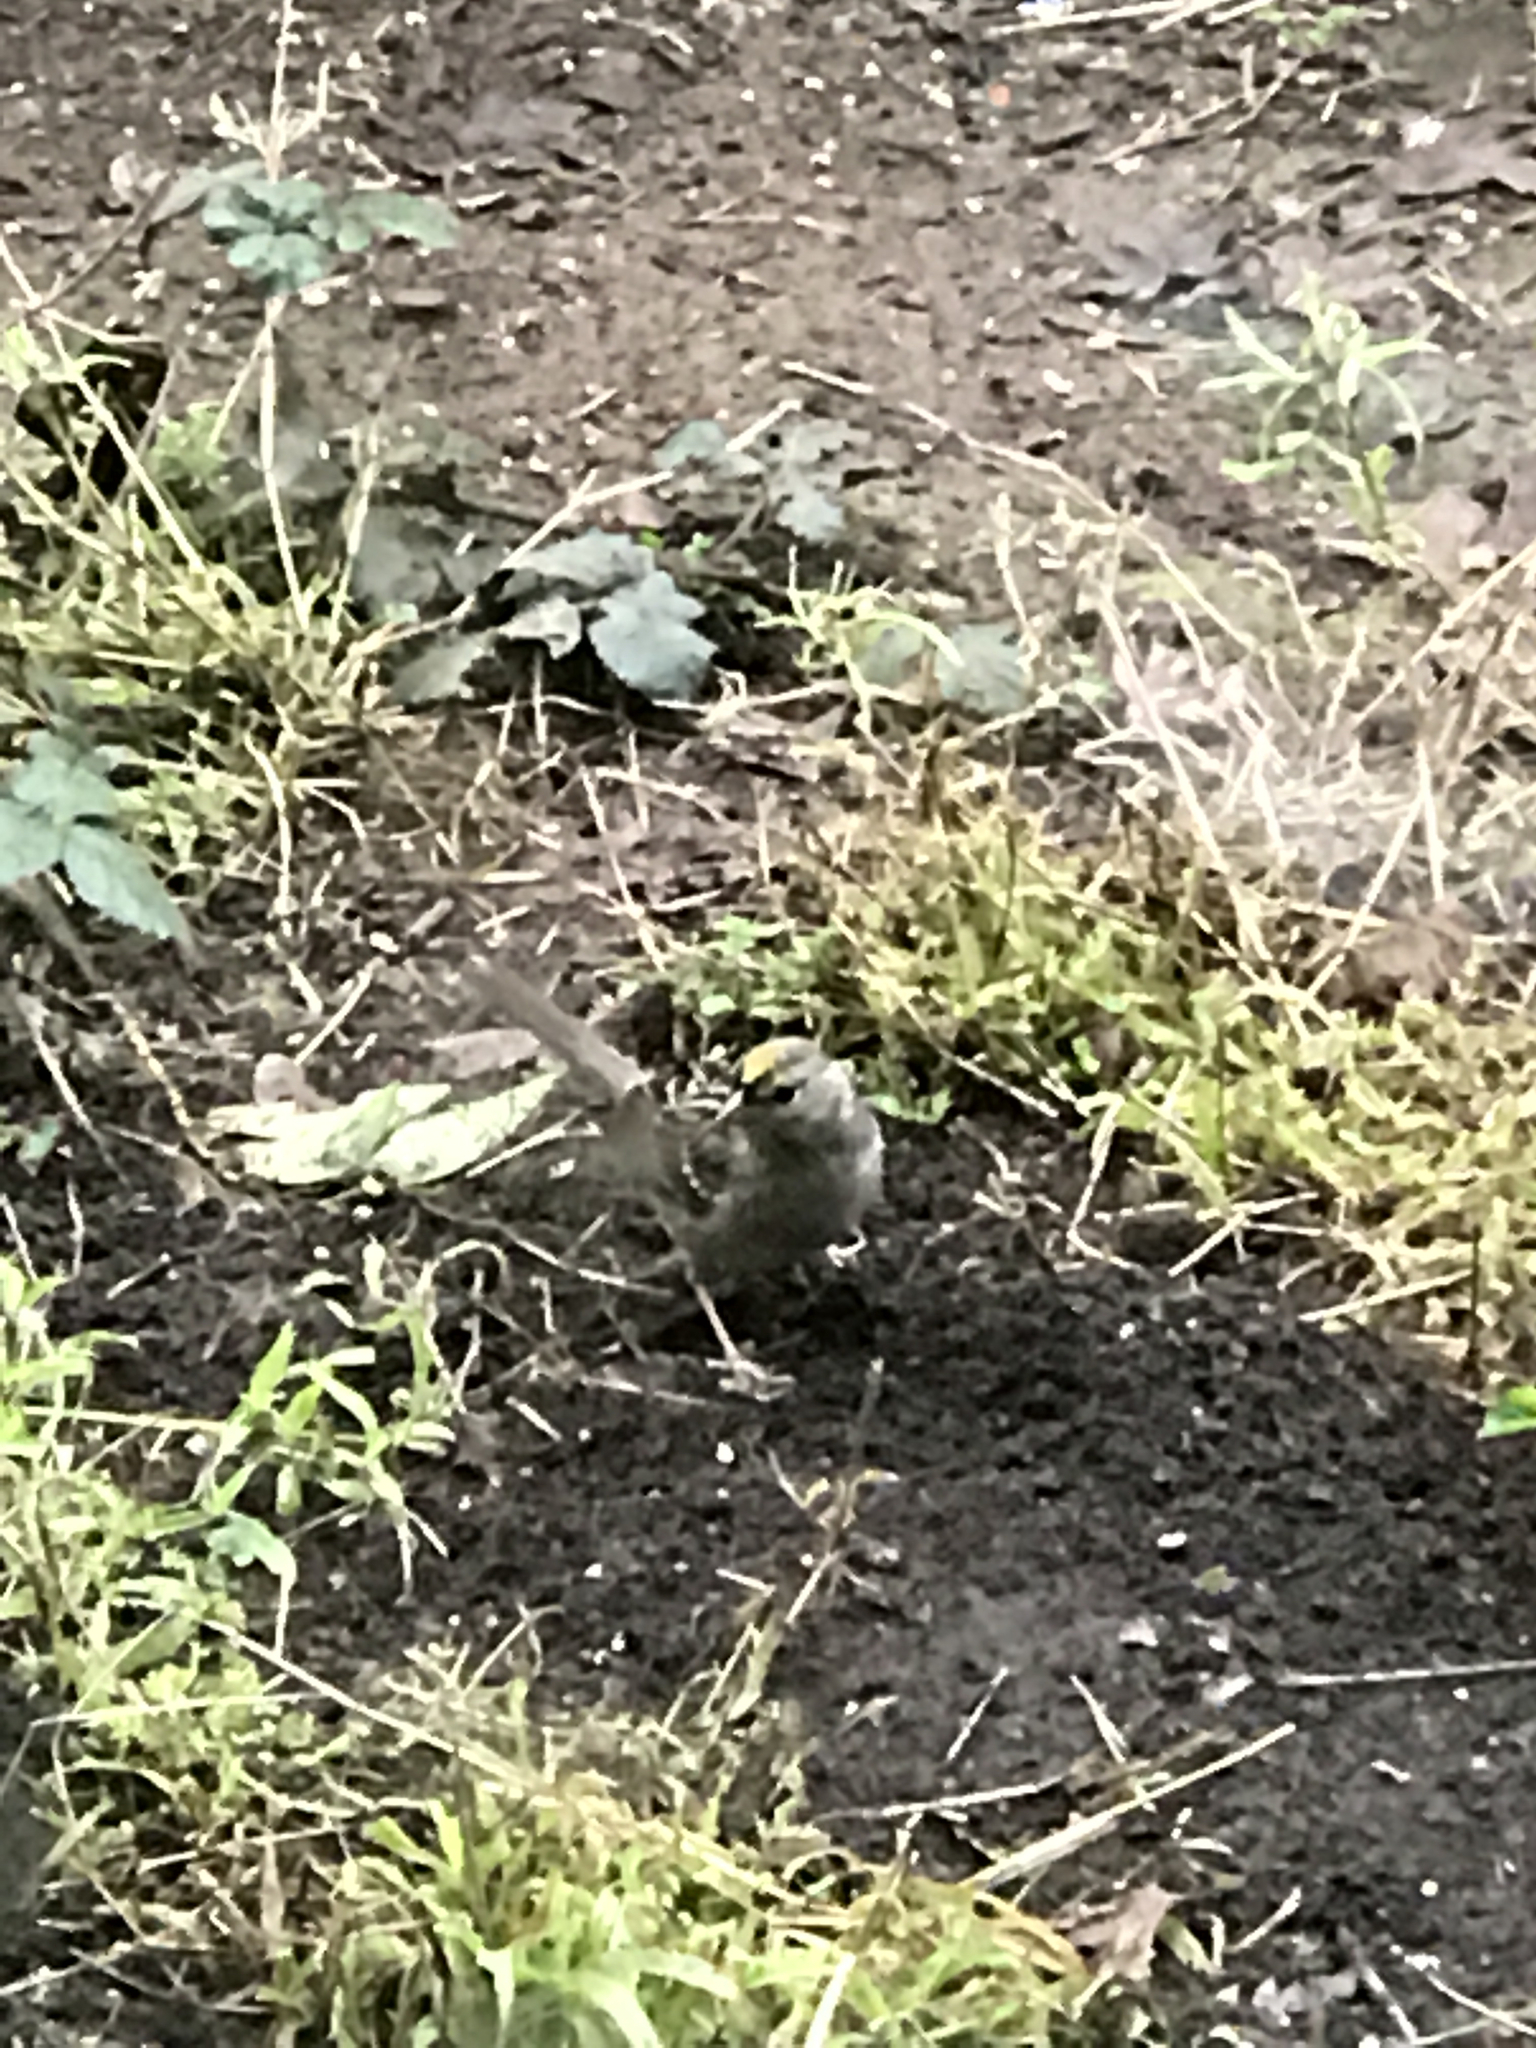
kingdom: Animalia
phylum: Chordata
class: Aves
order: Passeriformes
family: Passerellidae
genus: Zonotrichia
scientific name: Zonotrichia atricapilla
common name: Golden-crowned sparrow
